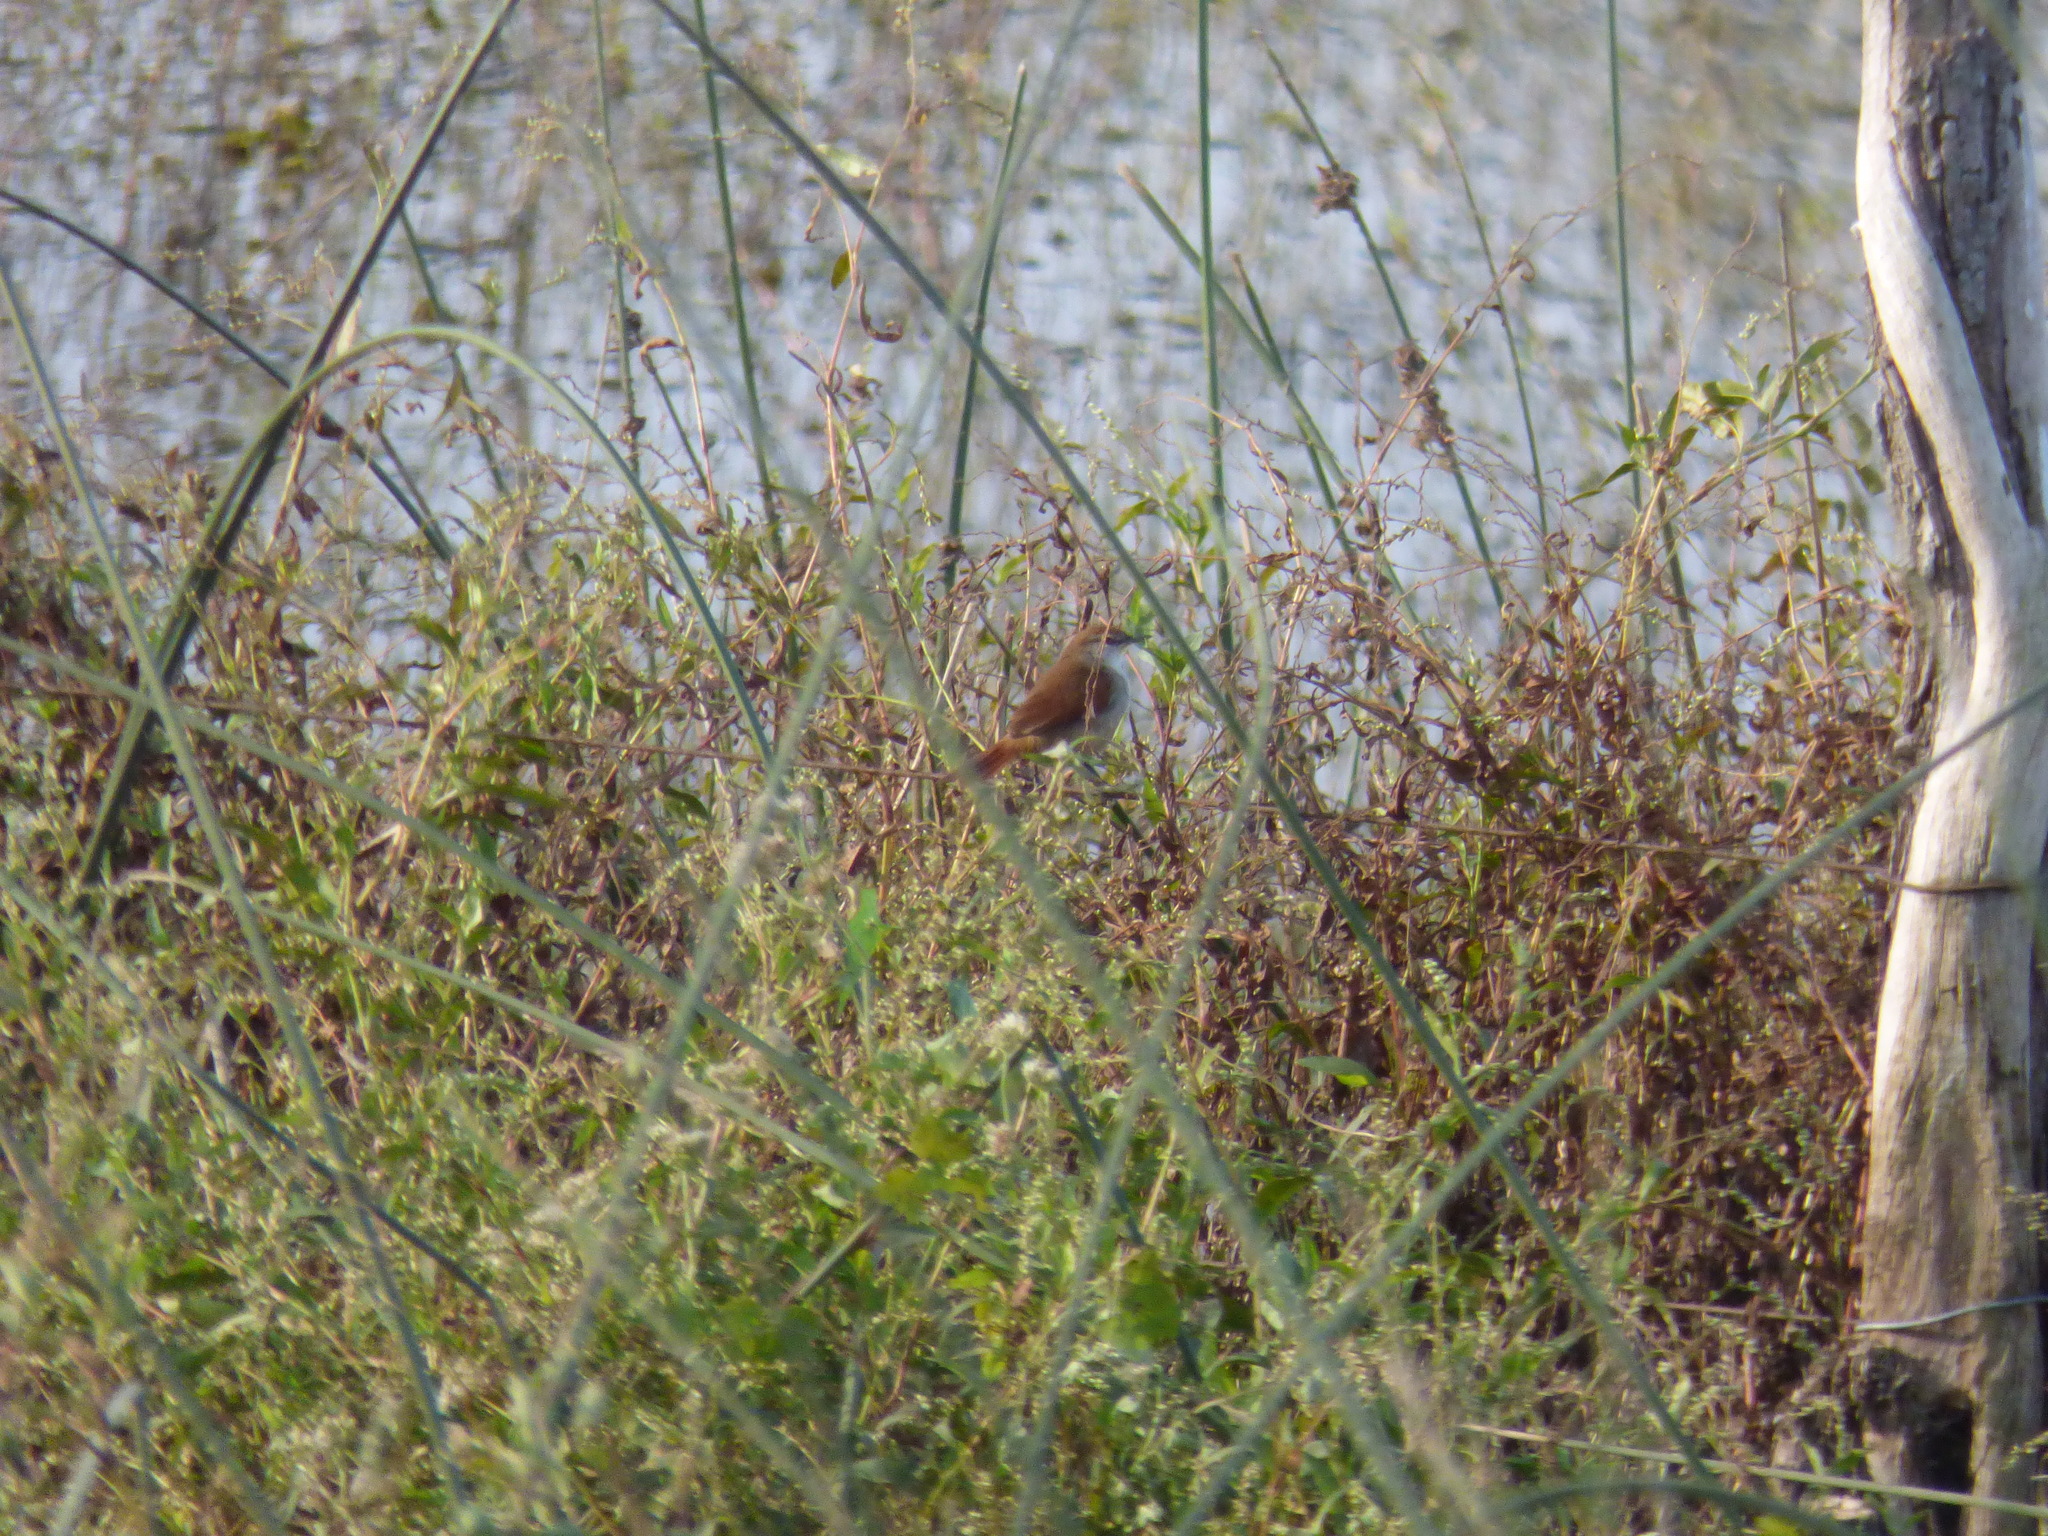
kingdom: Animalia
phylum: Chordata
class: Aves
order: Passeriformes
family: Furnariidae
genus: Certhiaxis
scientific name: Certhiaxis cinnamomeus
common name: Yellow-chinned spinetail
